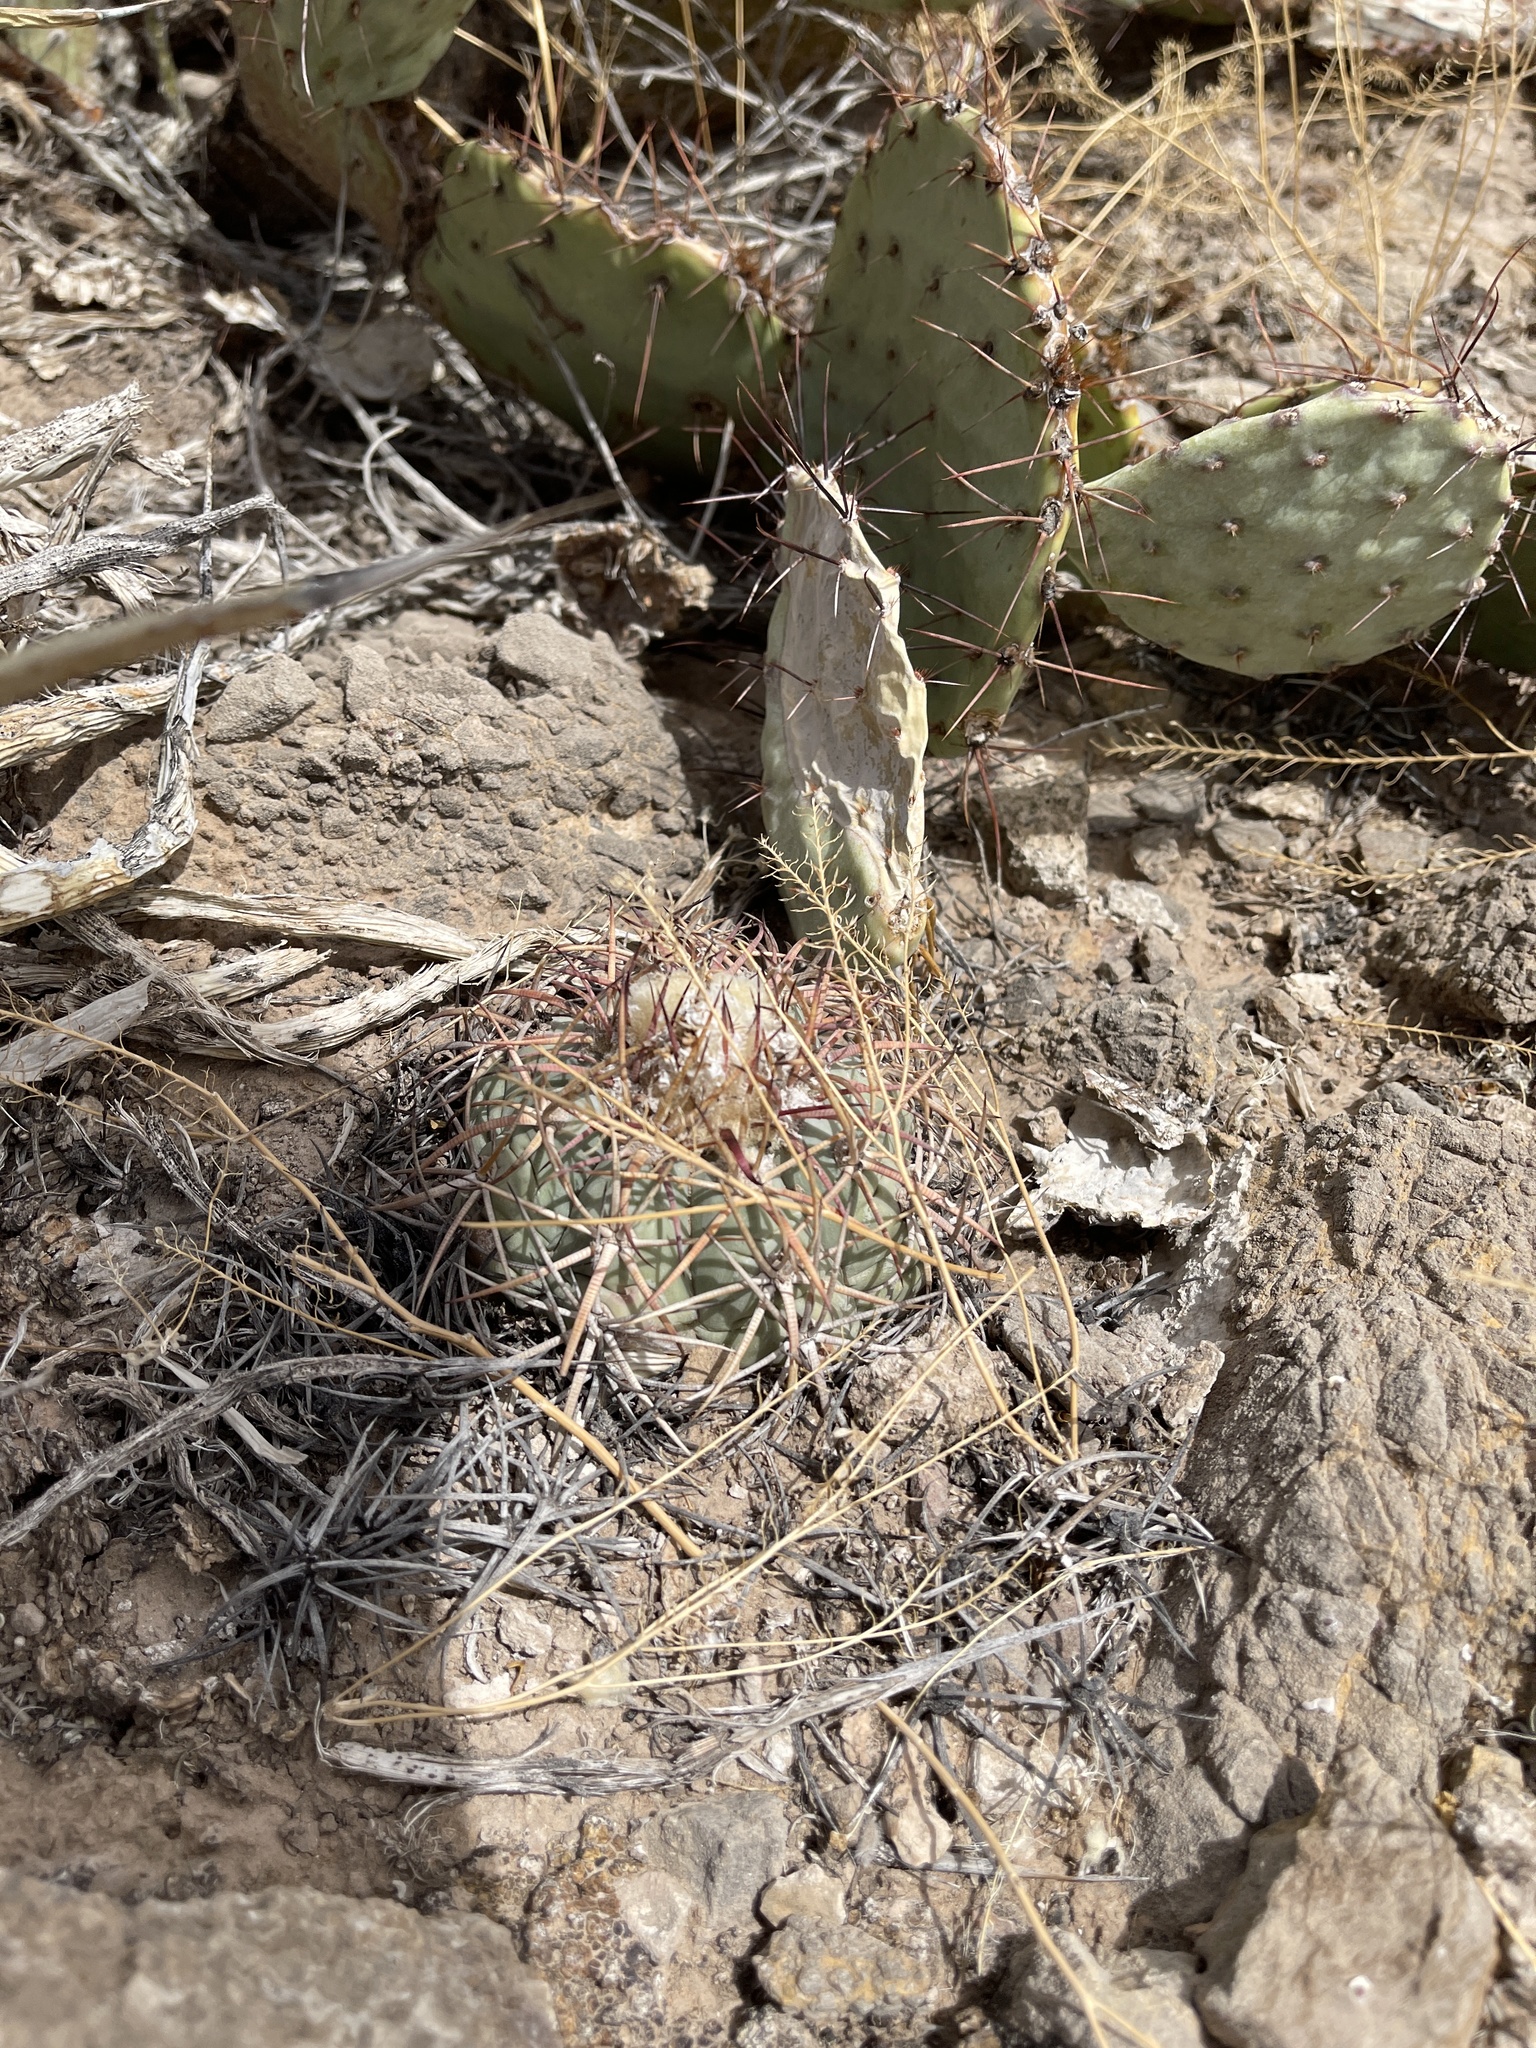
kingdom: Plantae
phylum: Tracheophyta
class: Magnoliopsida
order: Caryophyllales
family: Cactaceae
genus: Echinocactus
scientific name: Echinocactus horizonthalonius
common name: Devilshead
